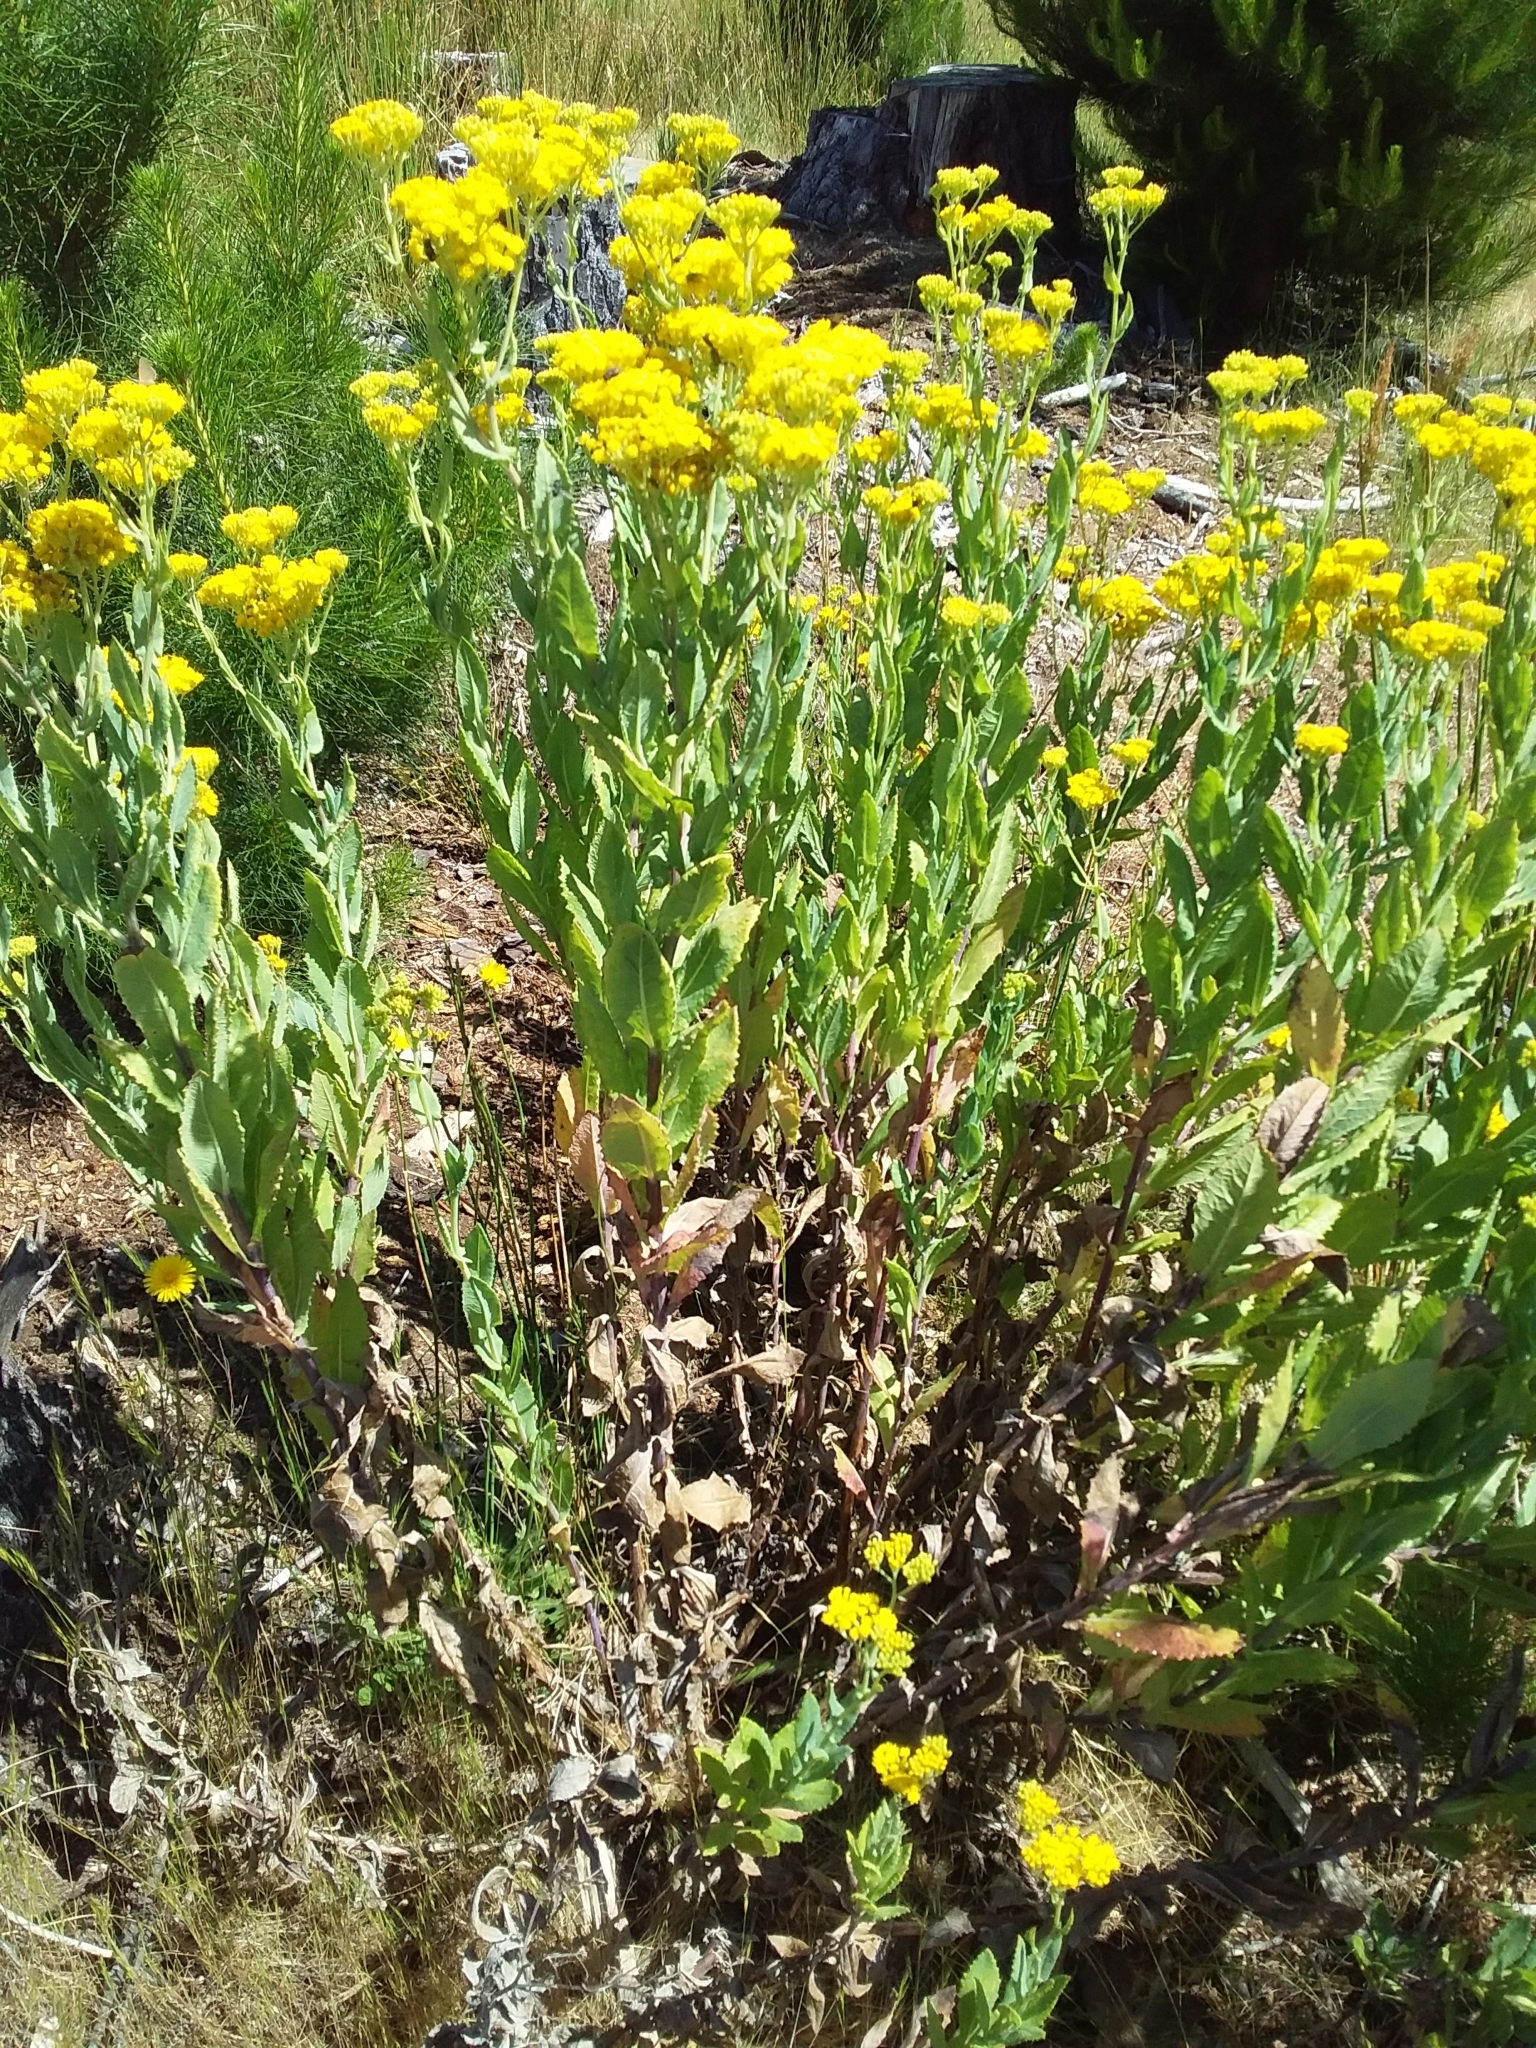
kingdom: Plantae
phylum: Tracheophyta
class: Magnoliopsida
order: Asterales
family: Asteraceae
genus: Senecio
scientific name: Senecio odoratus
